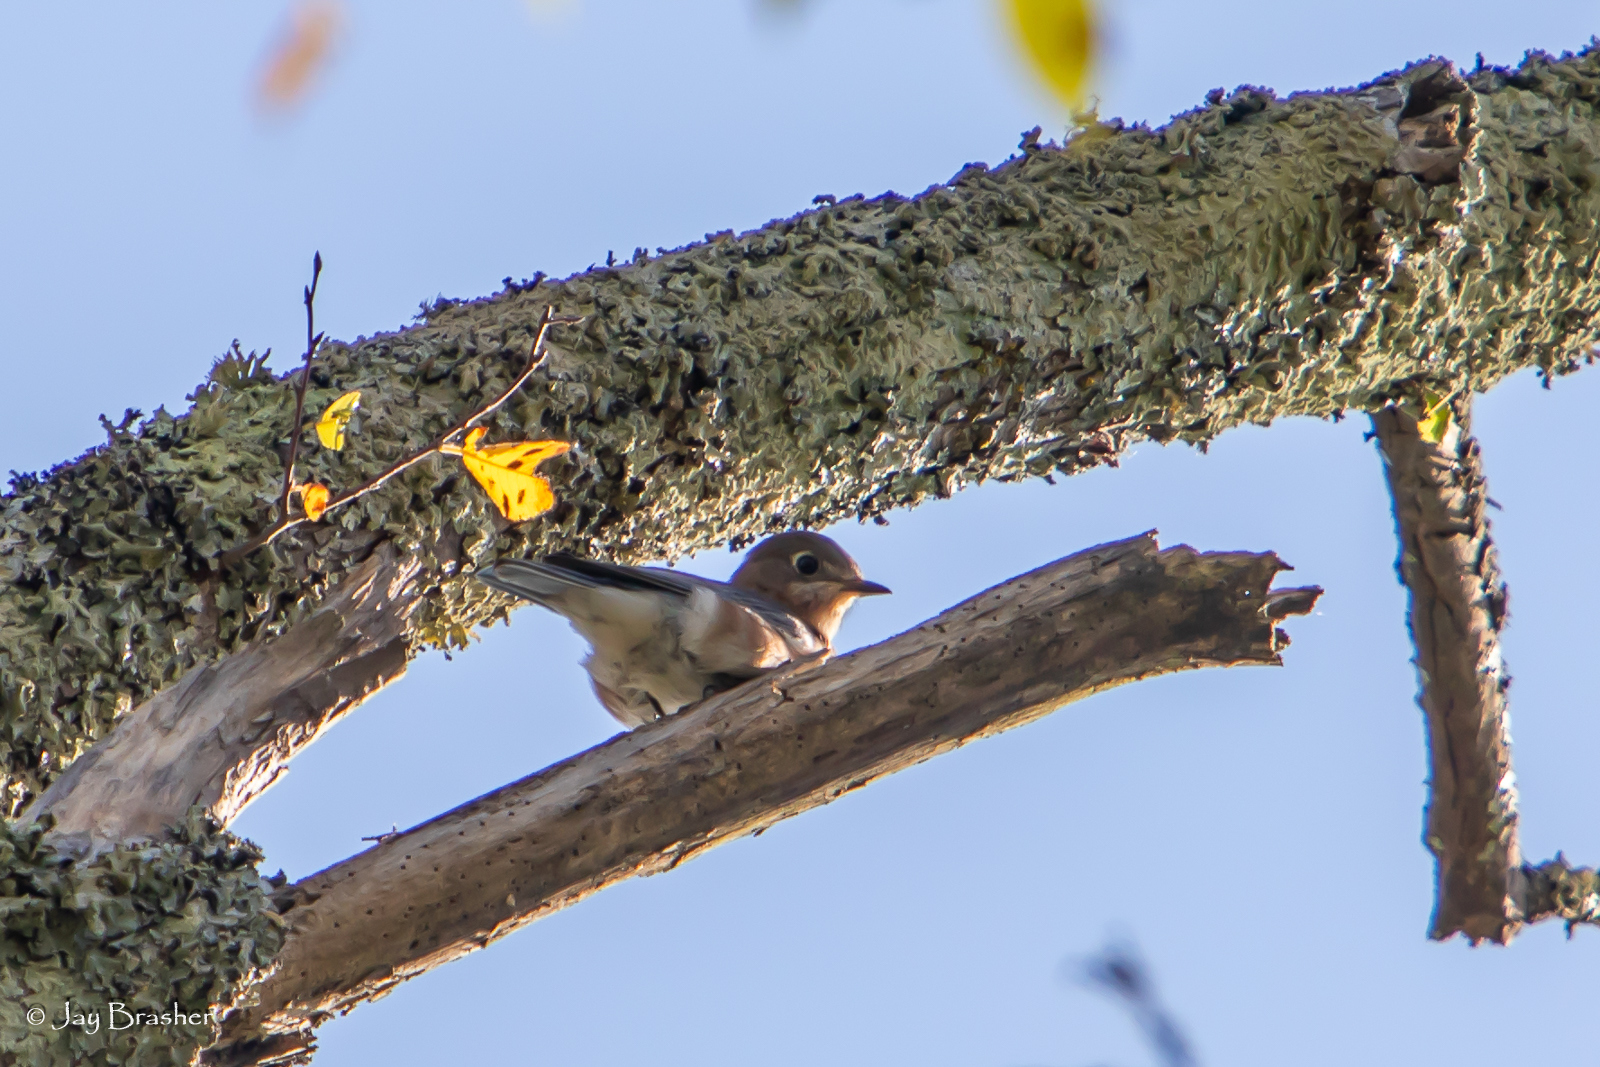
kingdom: Animalia
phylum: Chordata
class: Aves
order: Passeriformes
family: Turdidae
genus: Sialia
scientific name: Sialia sialis
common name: Eastern bluebird
